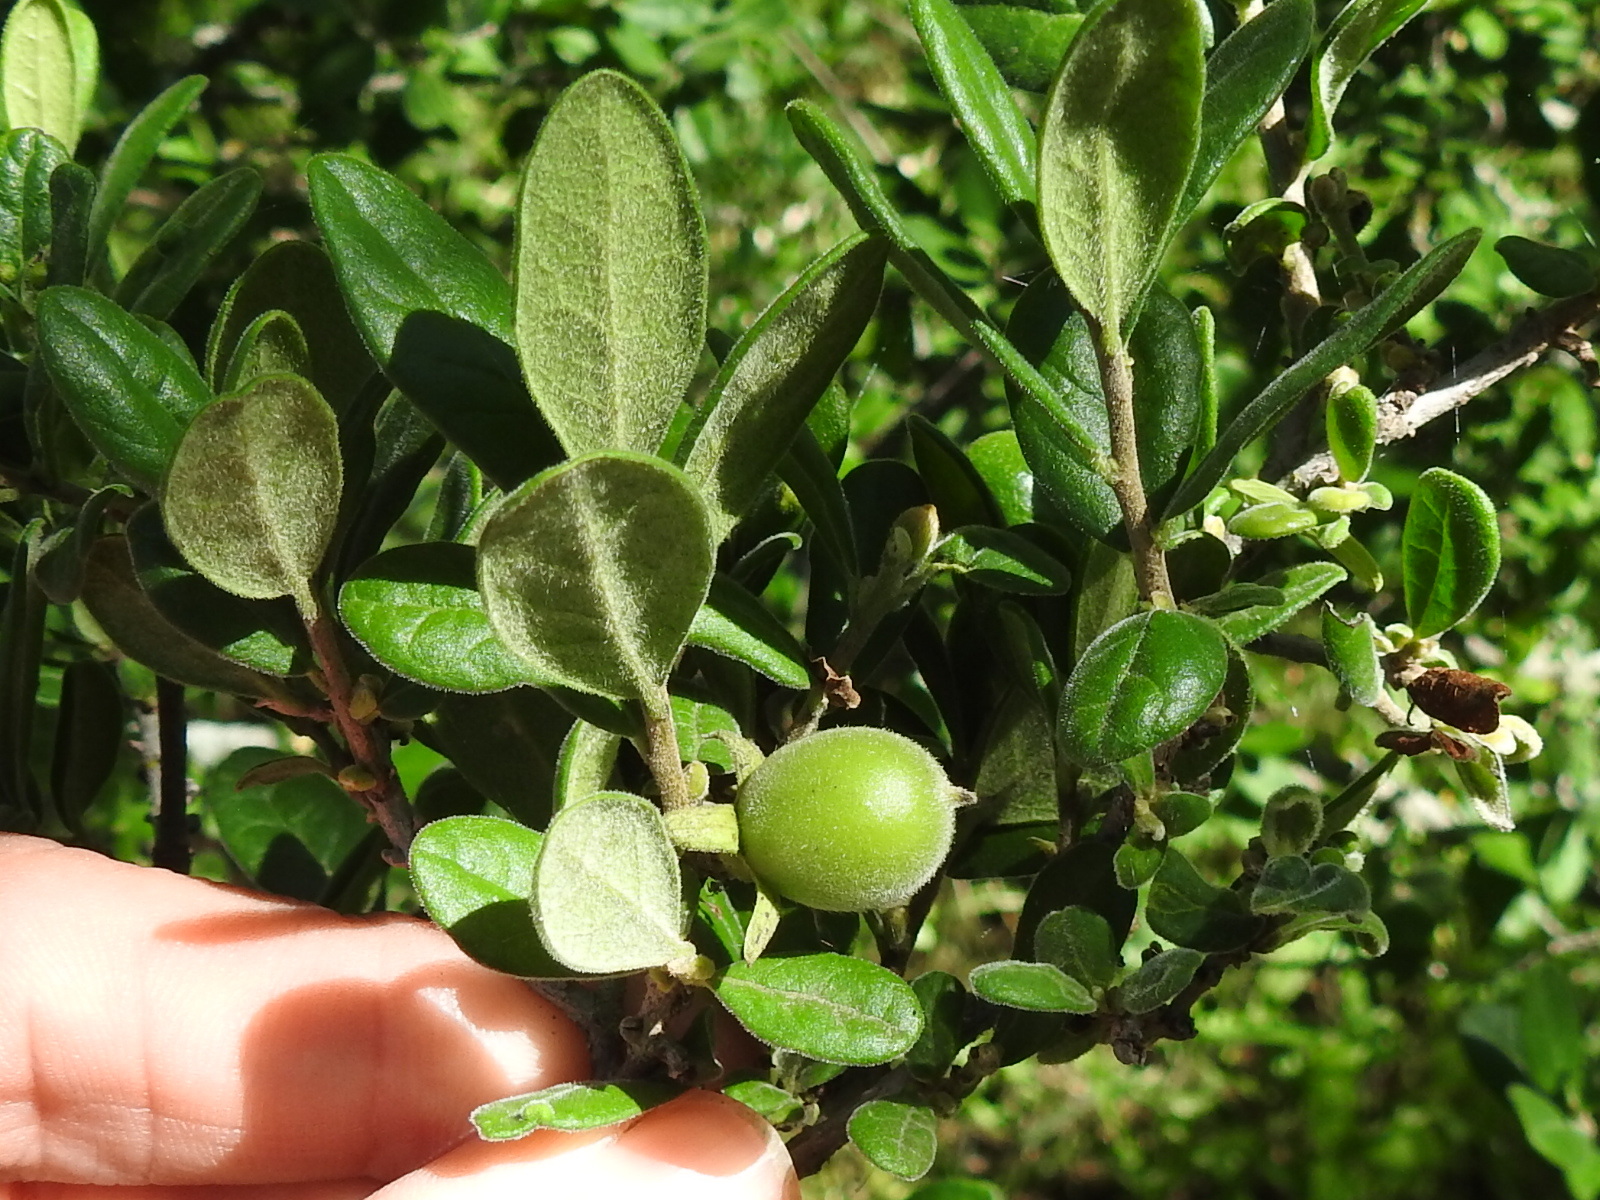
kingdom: Plantae
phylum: Tracheophyta
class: Magnoliopsida
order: Ericales
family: Ebenaceae
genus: Diospyros
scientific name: Diospyros texana
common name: Texas persimmon
